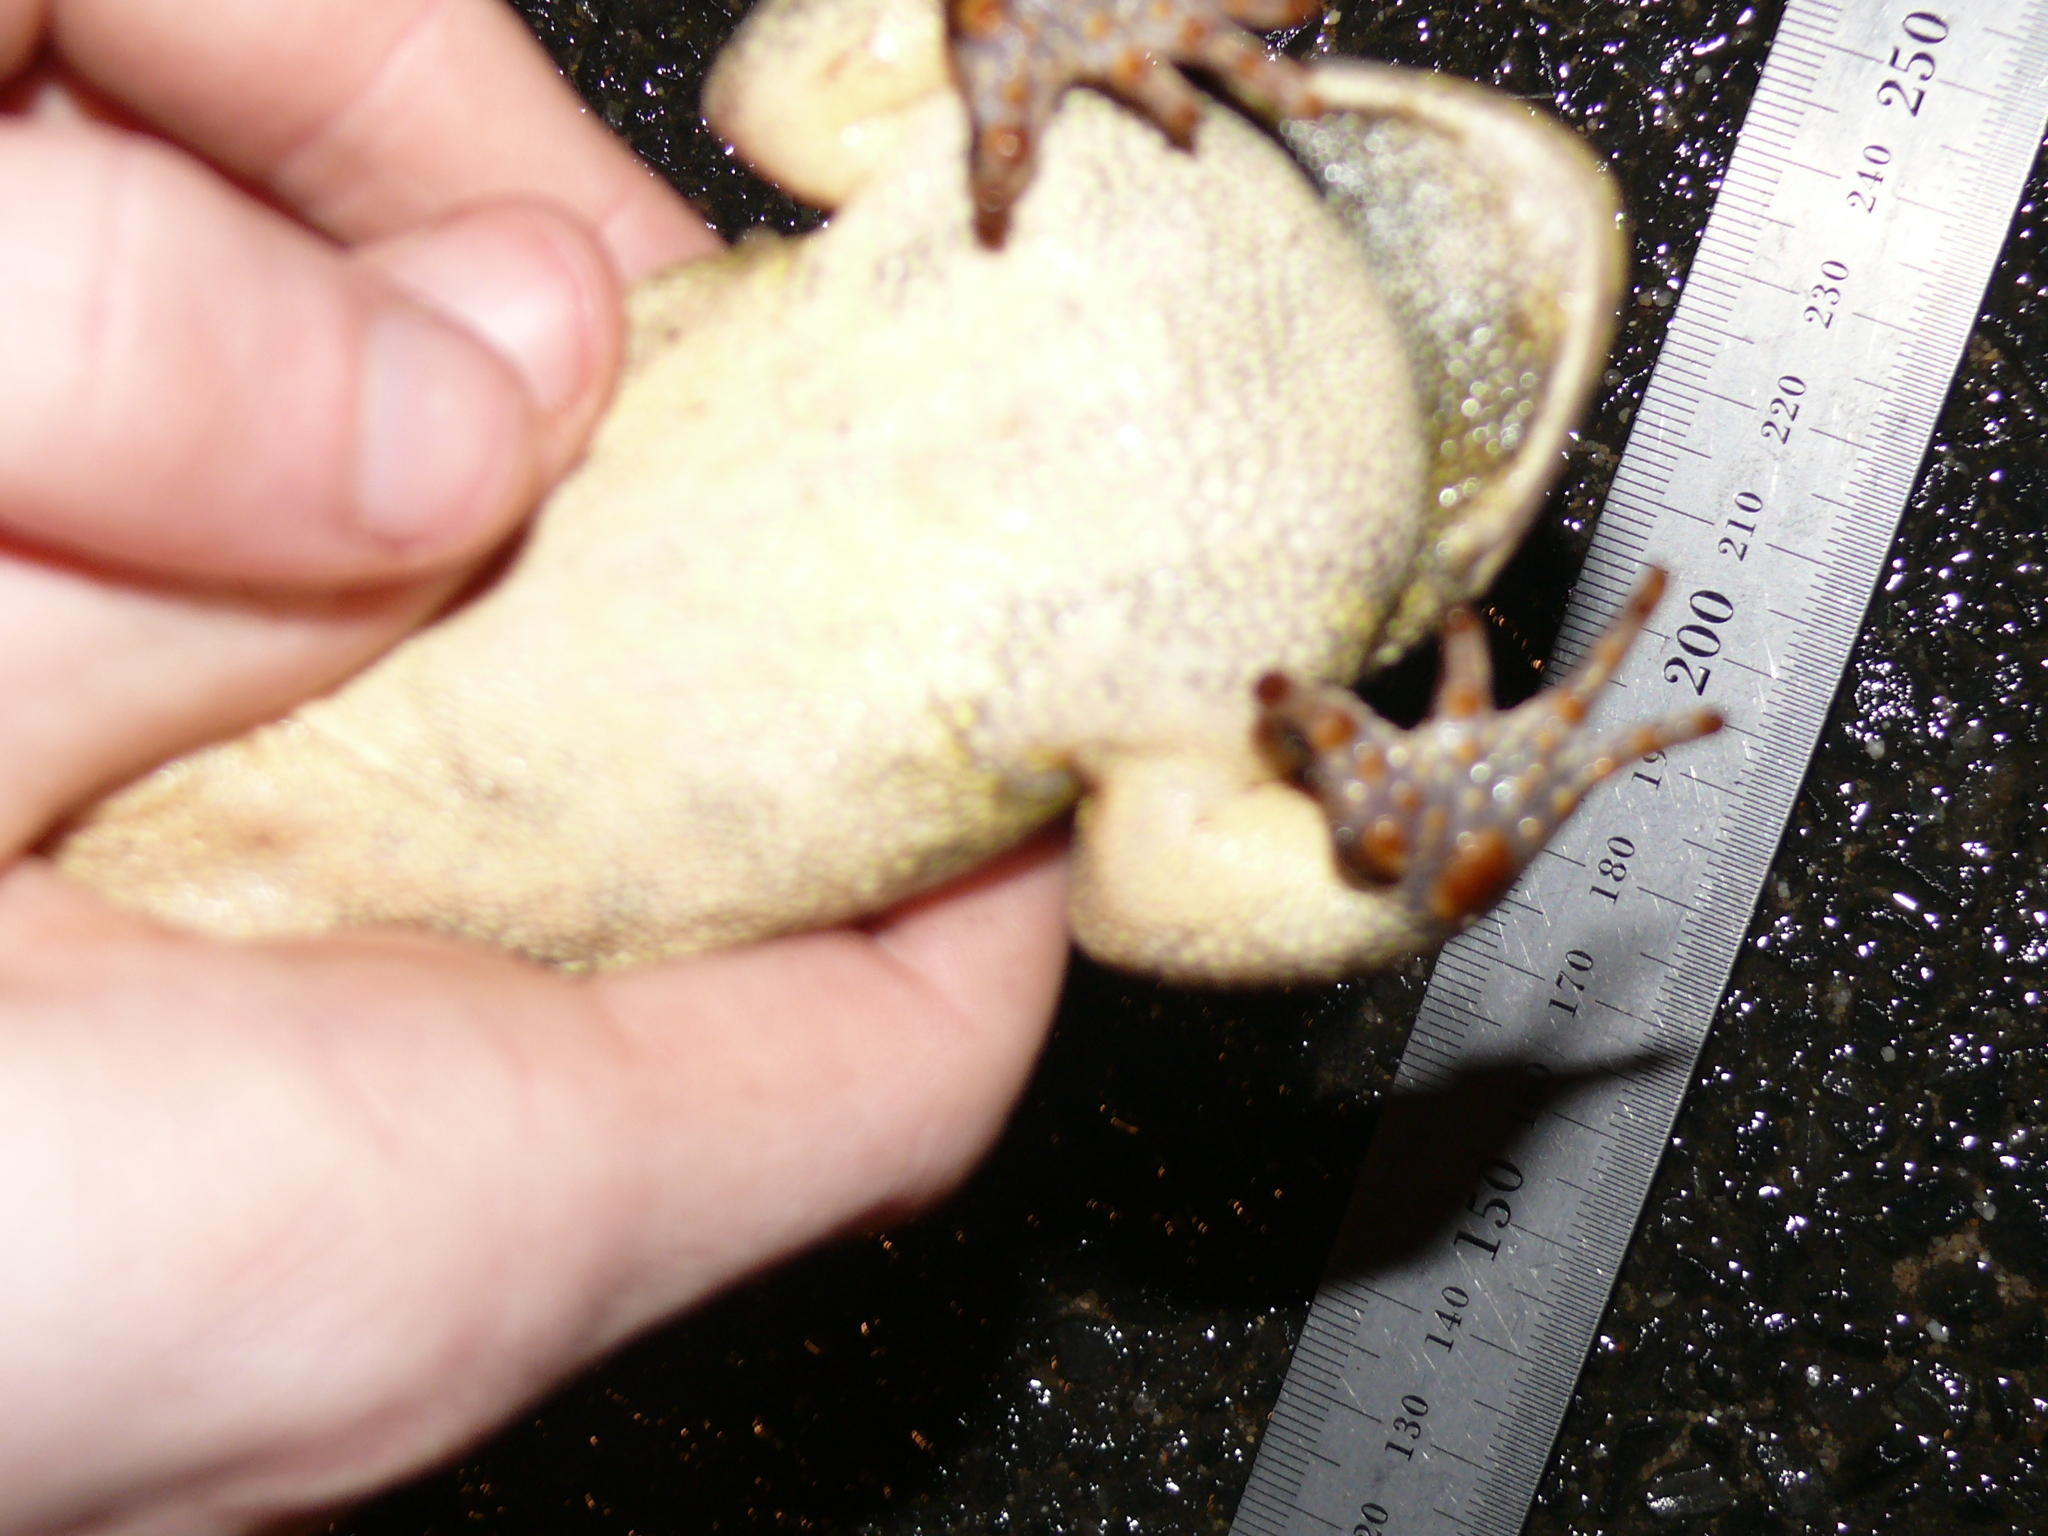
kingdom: Animalia
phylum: Chordata
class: Amphibia
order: Anura
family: Bufonidae
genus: Sclerophrys
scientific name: Sclerophrys pantherina
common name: Panther toad
